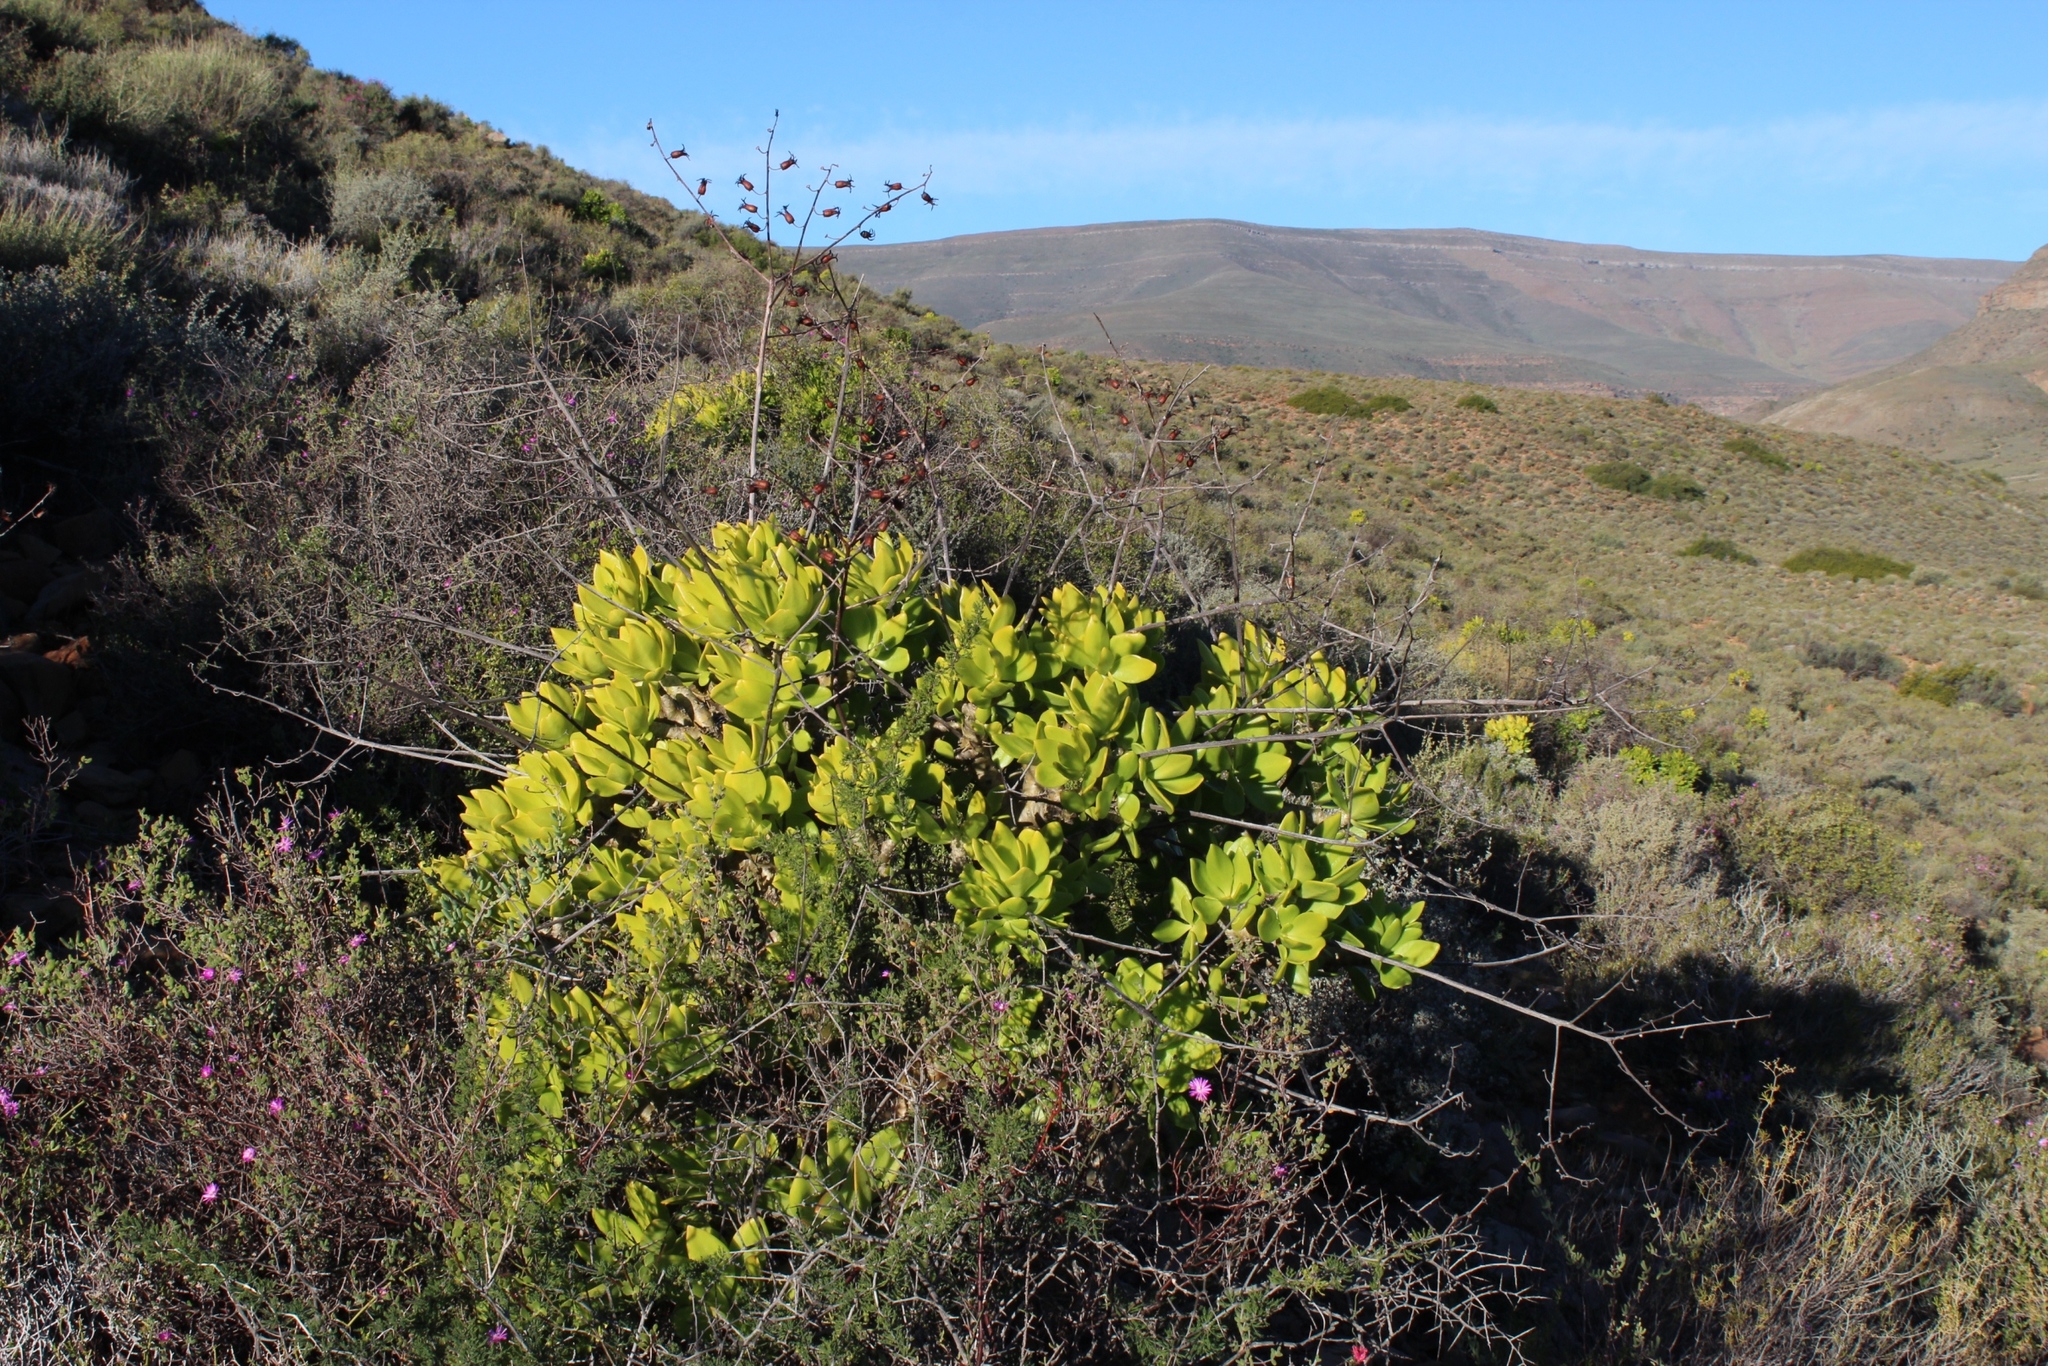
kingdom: Plantae
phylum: Tracheophyta
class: Magnoliopsida
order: Saxifragales
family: Crassulaceae
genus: Tylecodon
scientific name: Tylecodon paniculatus
